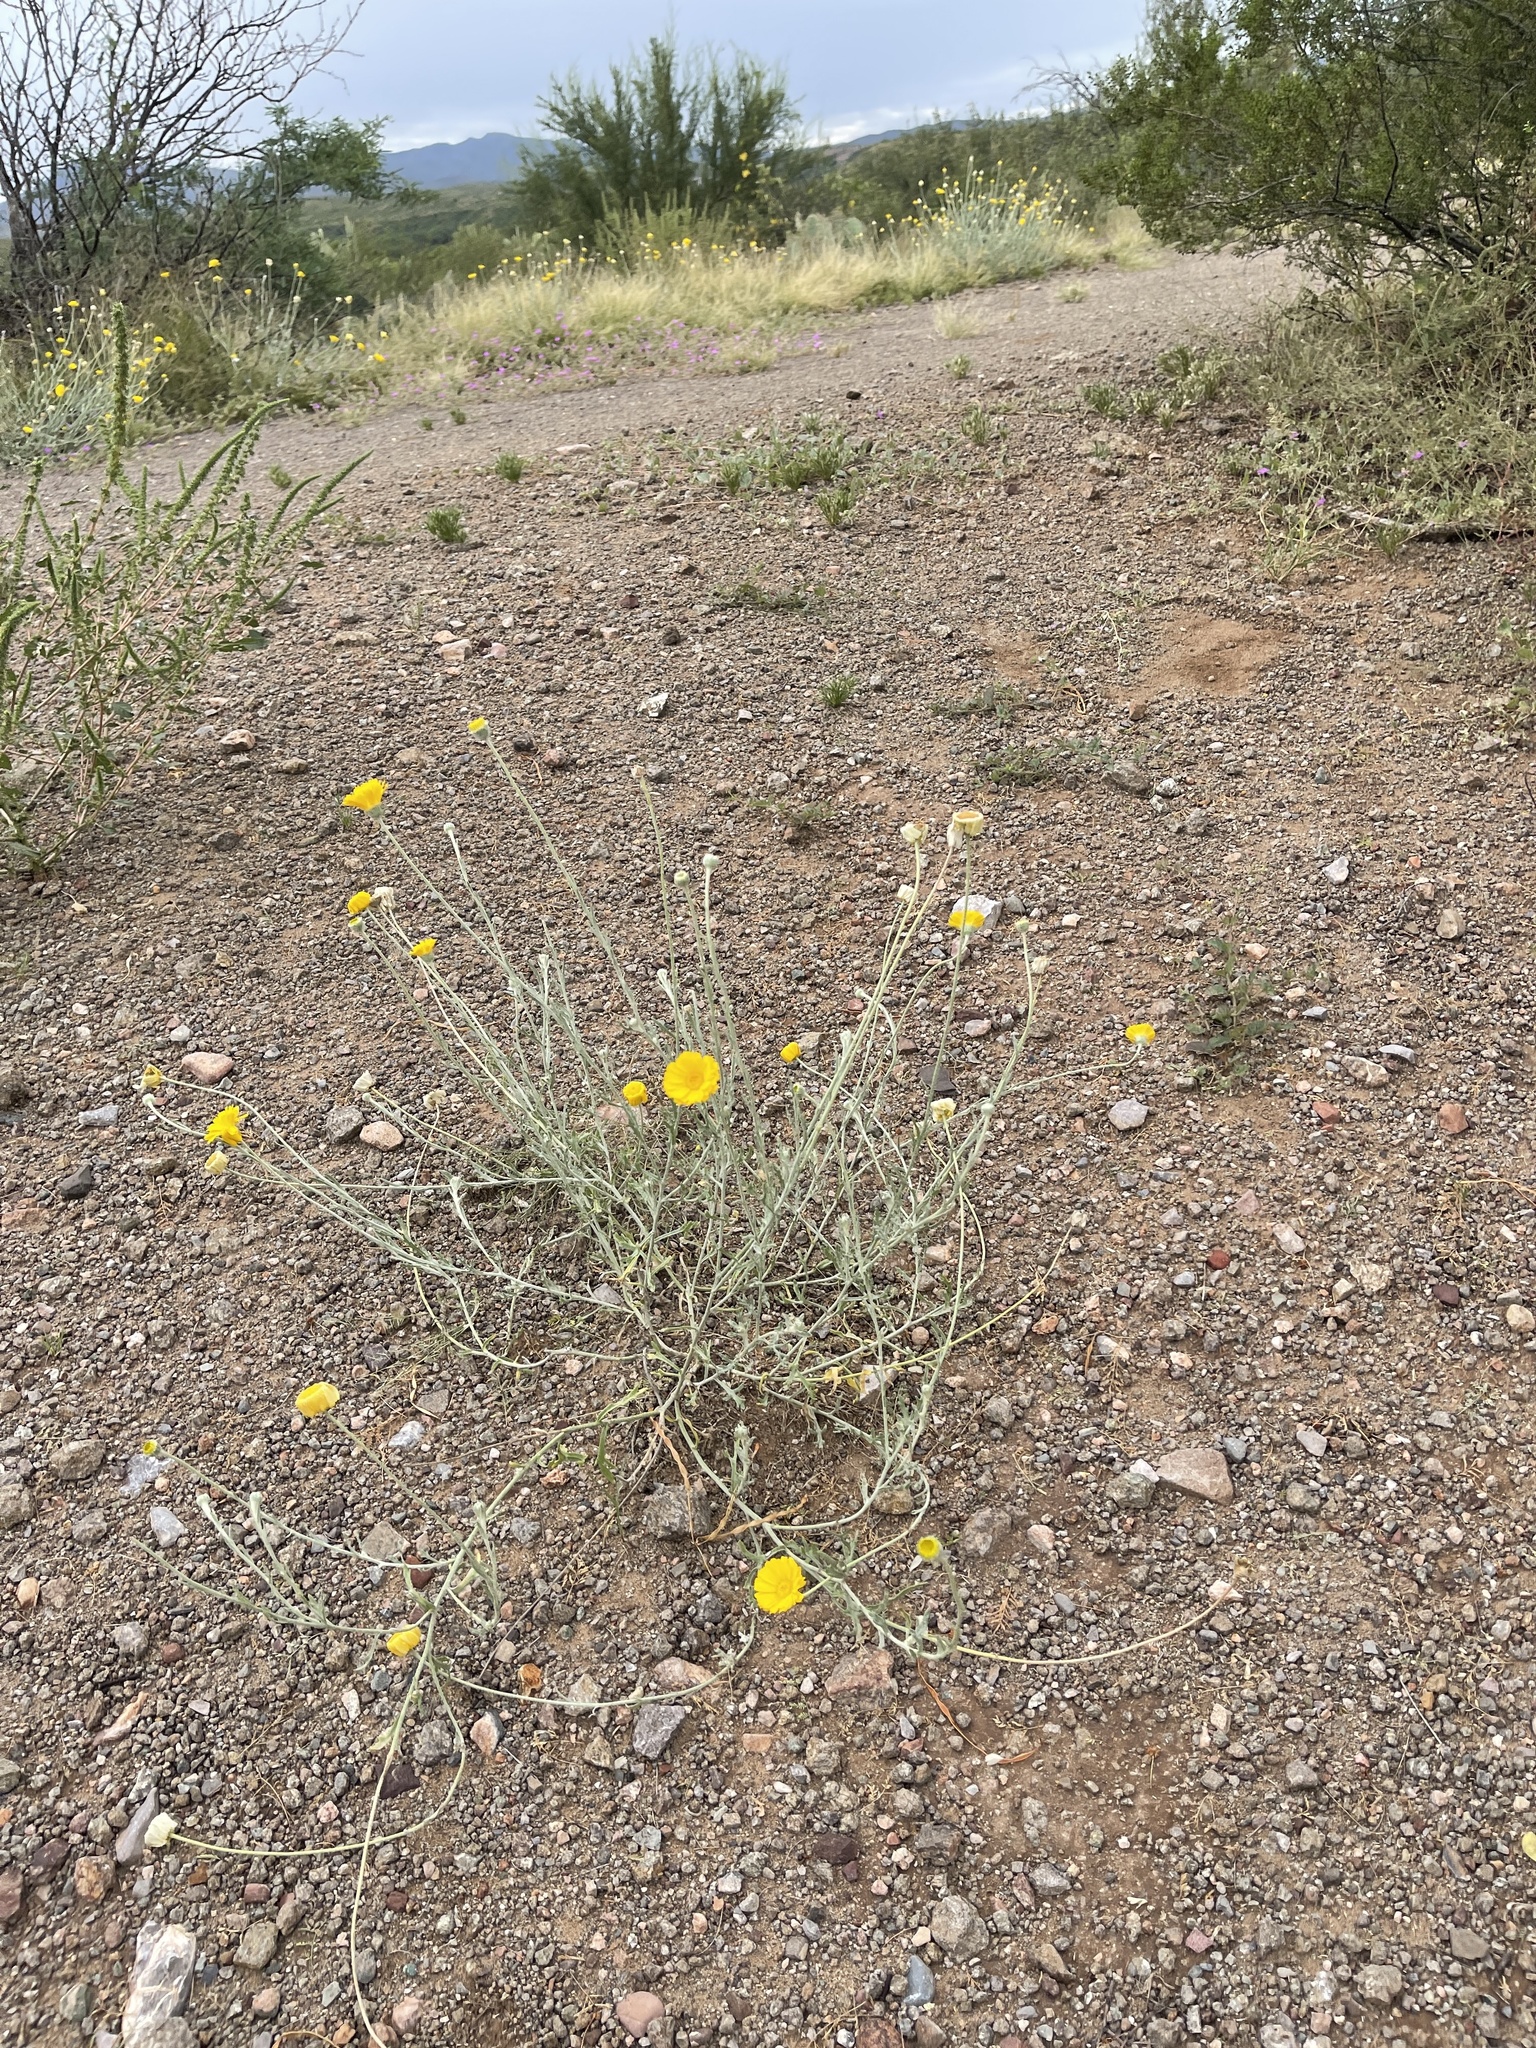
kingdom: Plantae
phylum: Tracheophyta
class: Magnoliopsida
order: Asterales
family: Asteraceae
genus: Baileya
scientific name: Baileya multiradiata
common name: Desert-marigold
